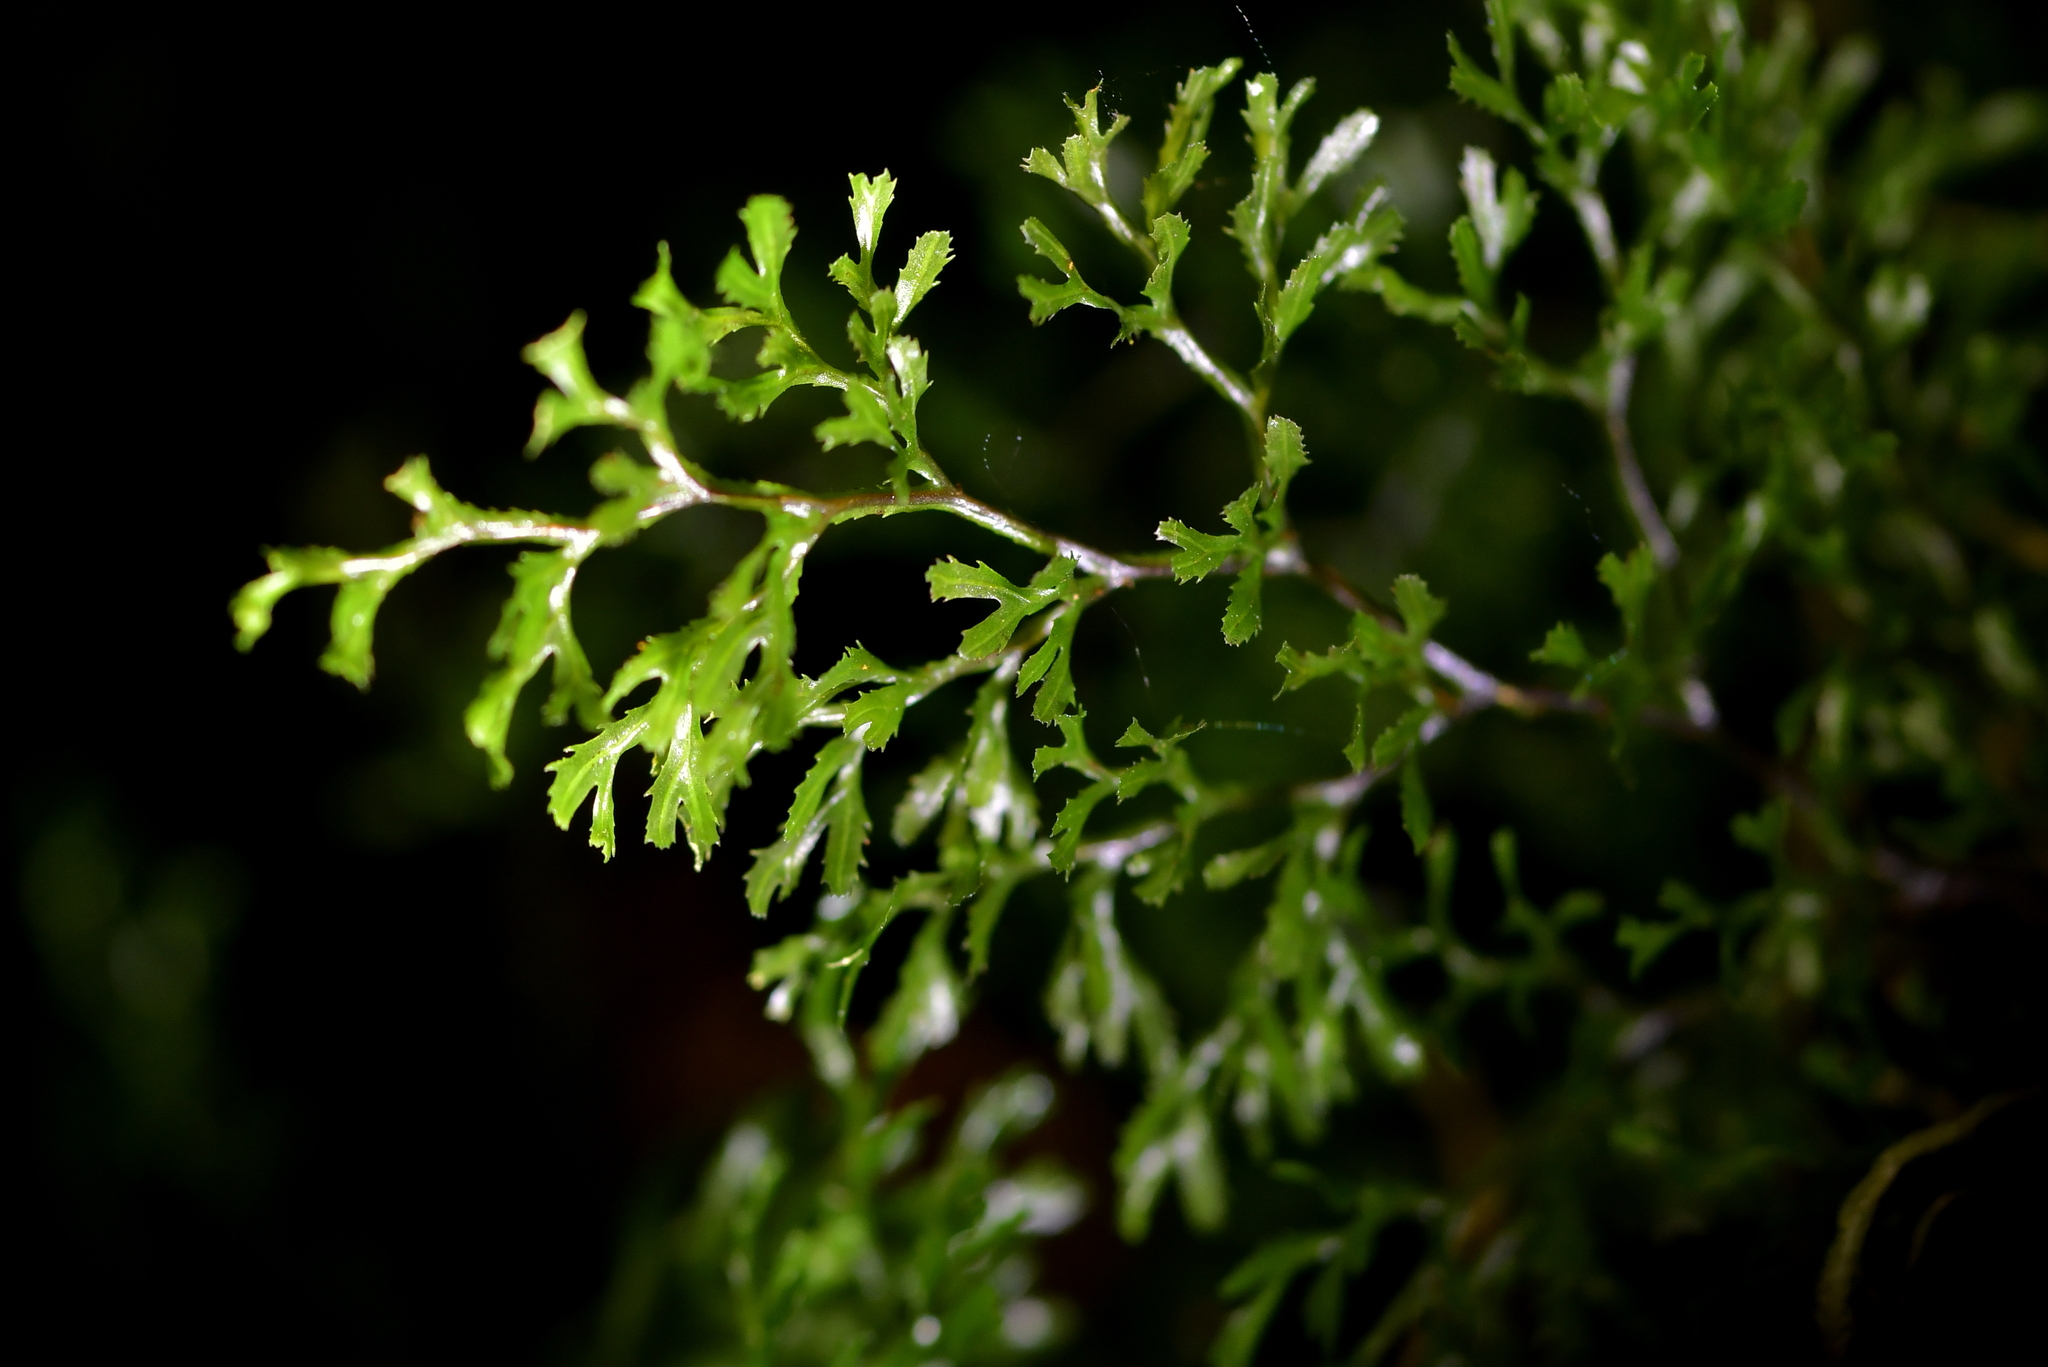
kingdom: Plantae
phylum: Tracheophyta
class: Polypodiopsida
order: Hymenophyllales
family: Hymenophyllaceae
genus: Hymenophyllum
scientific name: Hymenophyllum multifidum
